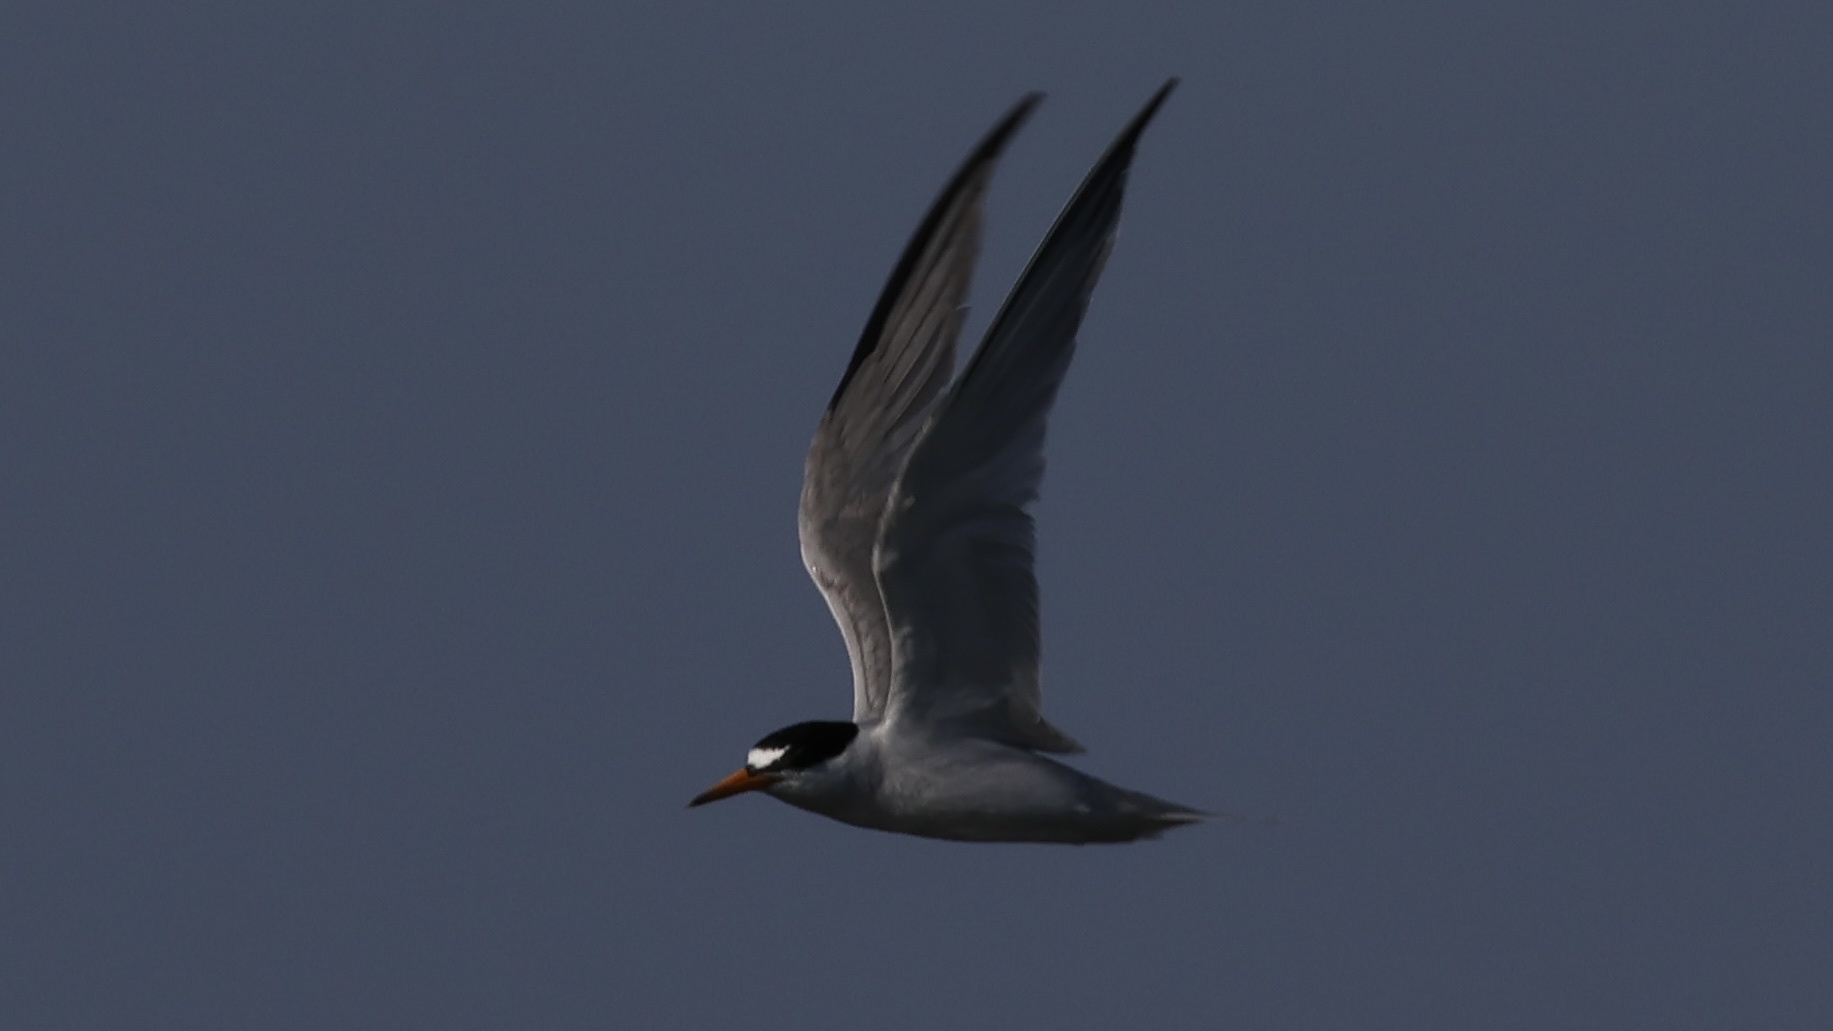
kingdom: Animalia
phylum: Chordata
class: Aves
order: Charadriiformes
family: Laridae
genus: Sternula
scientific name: Sternula antillarum
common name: Least tern
